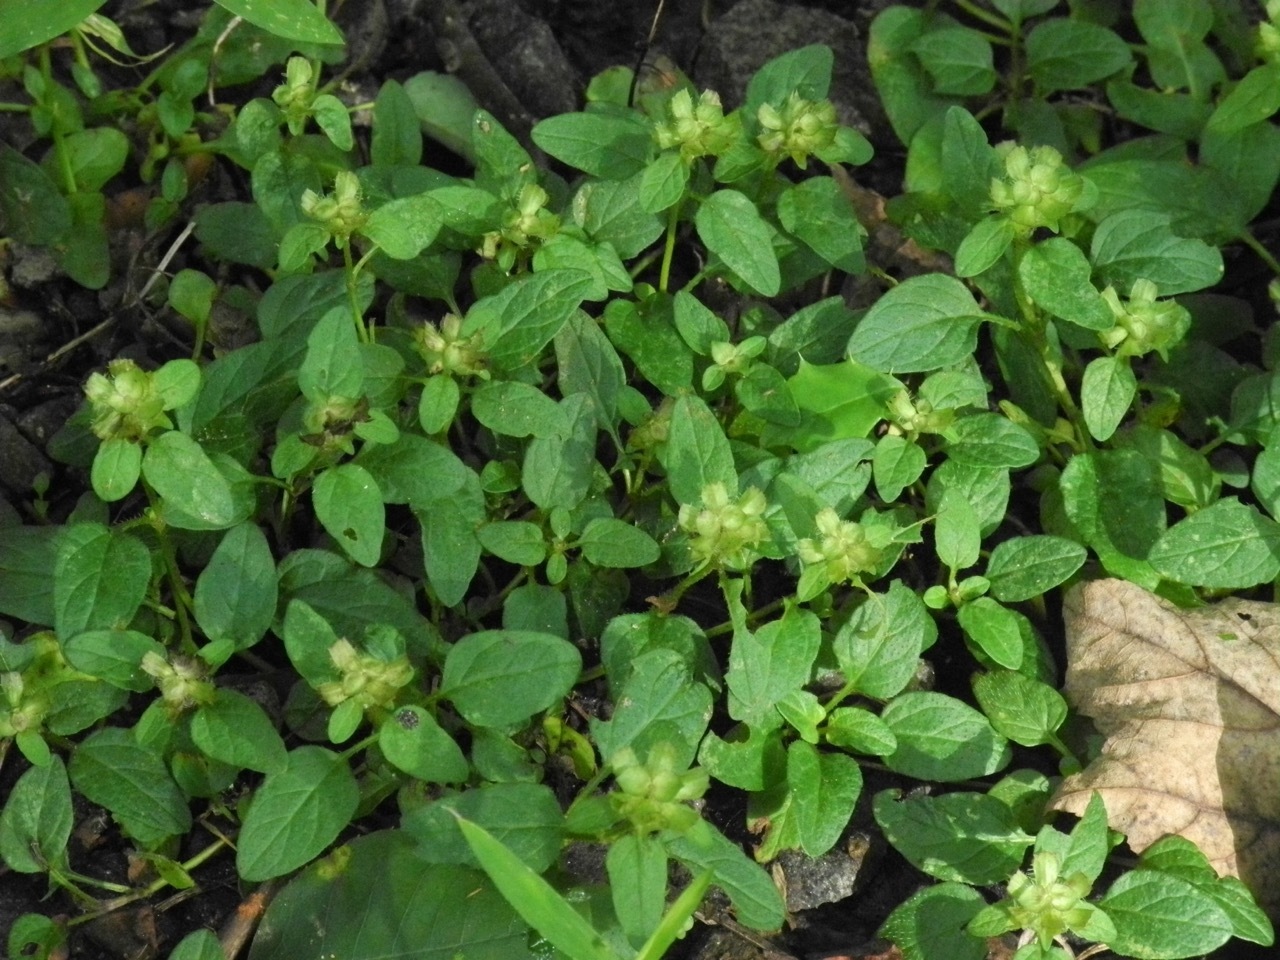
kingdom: Plantae
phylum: Tracheophyta
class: Magnoliopsida
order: Lamiales
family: Lamiaceae
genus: Prunella
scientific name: Prunella vulgaris
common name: Heal-all
